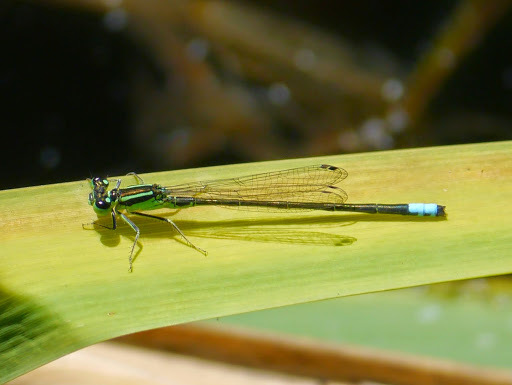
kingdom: Animalia
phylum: Arthropoda
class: Insecta
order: Odonata
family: Coenagrionidae
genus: Ischnura
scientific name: Ischnura verticalis
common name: Eastern forktail
